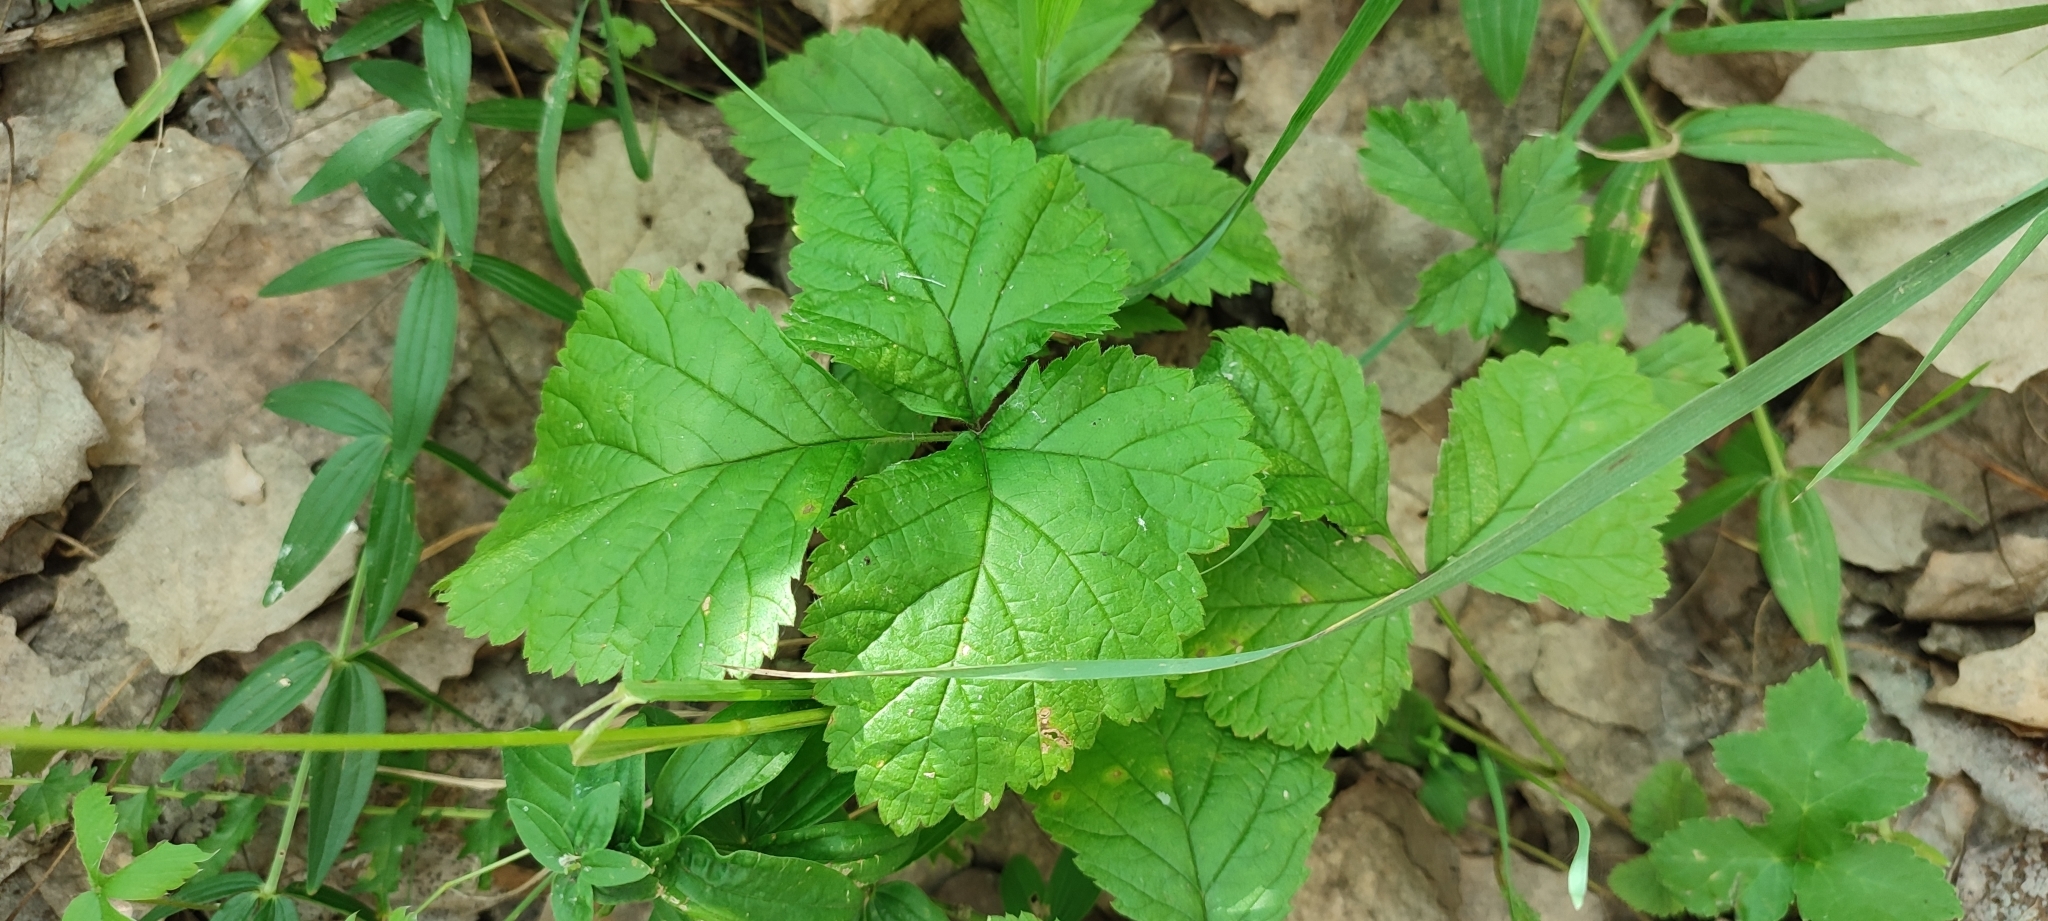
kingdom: Plantae
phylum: Tracheophyta
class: Magnoliopsida
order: Rosales
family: Rosaceae
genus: Rubus
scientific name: Rubus saxatilis
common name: Stone bramble
